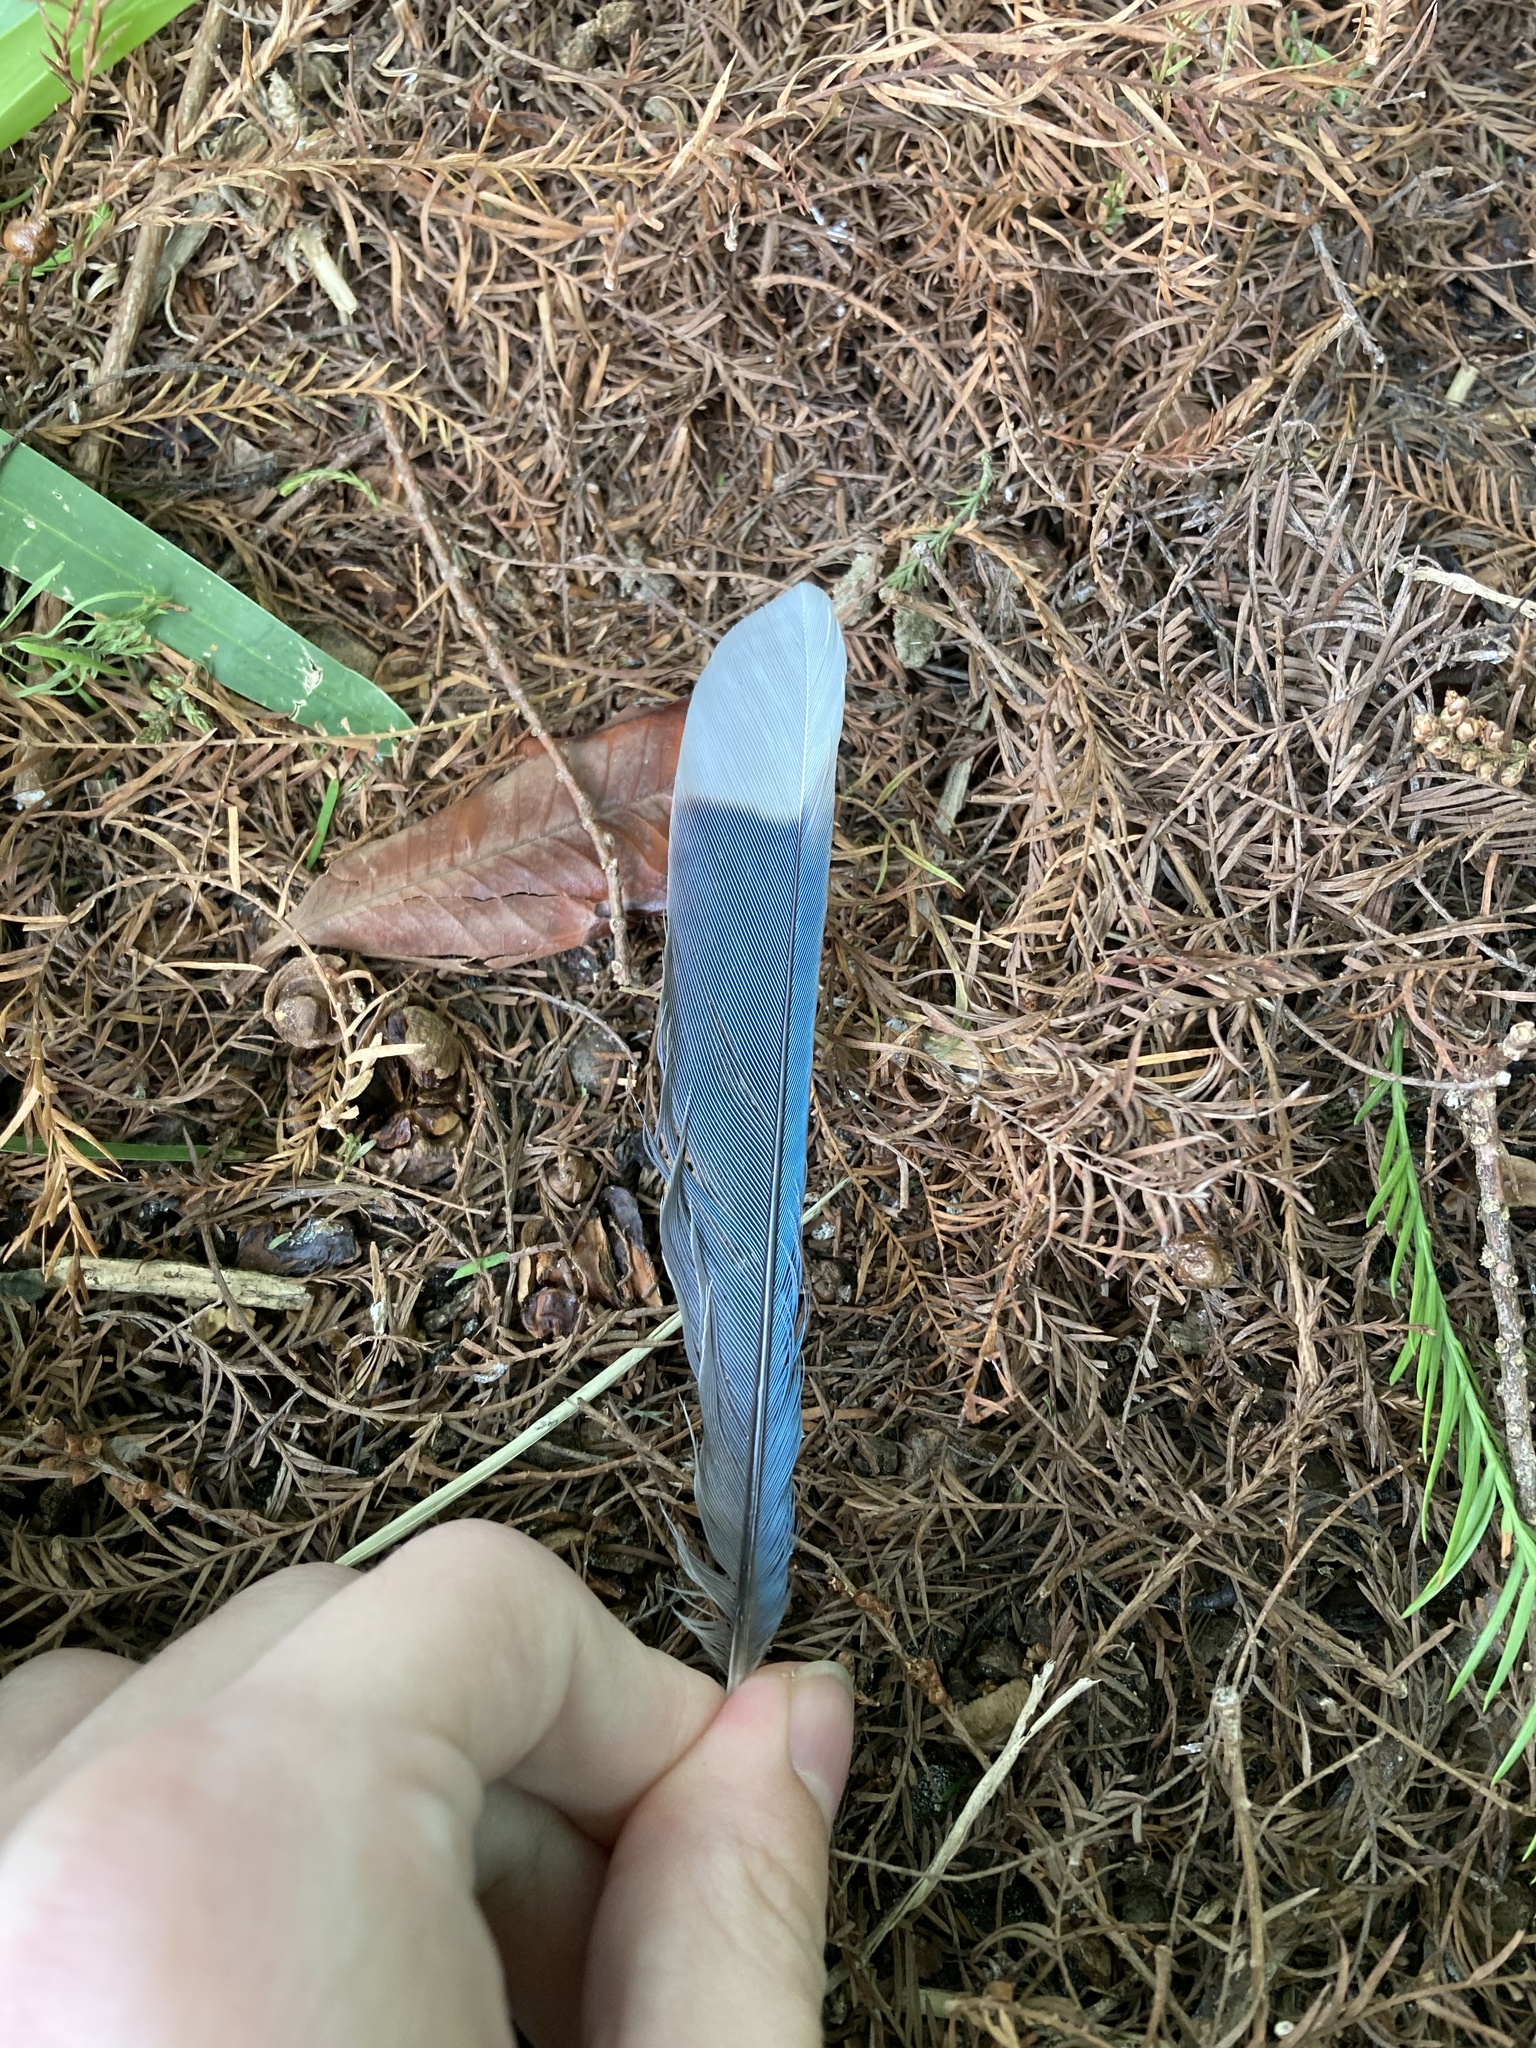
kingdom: Animalia
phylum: Chordata
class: Aves
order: Passeriformes
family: Corvidae
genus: Cyanocitta
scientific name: Cyanocitta cristata
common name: Blue jay
